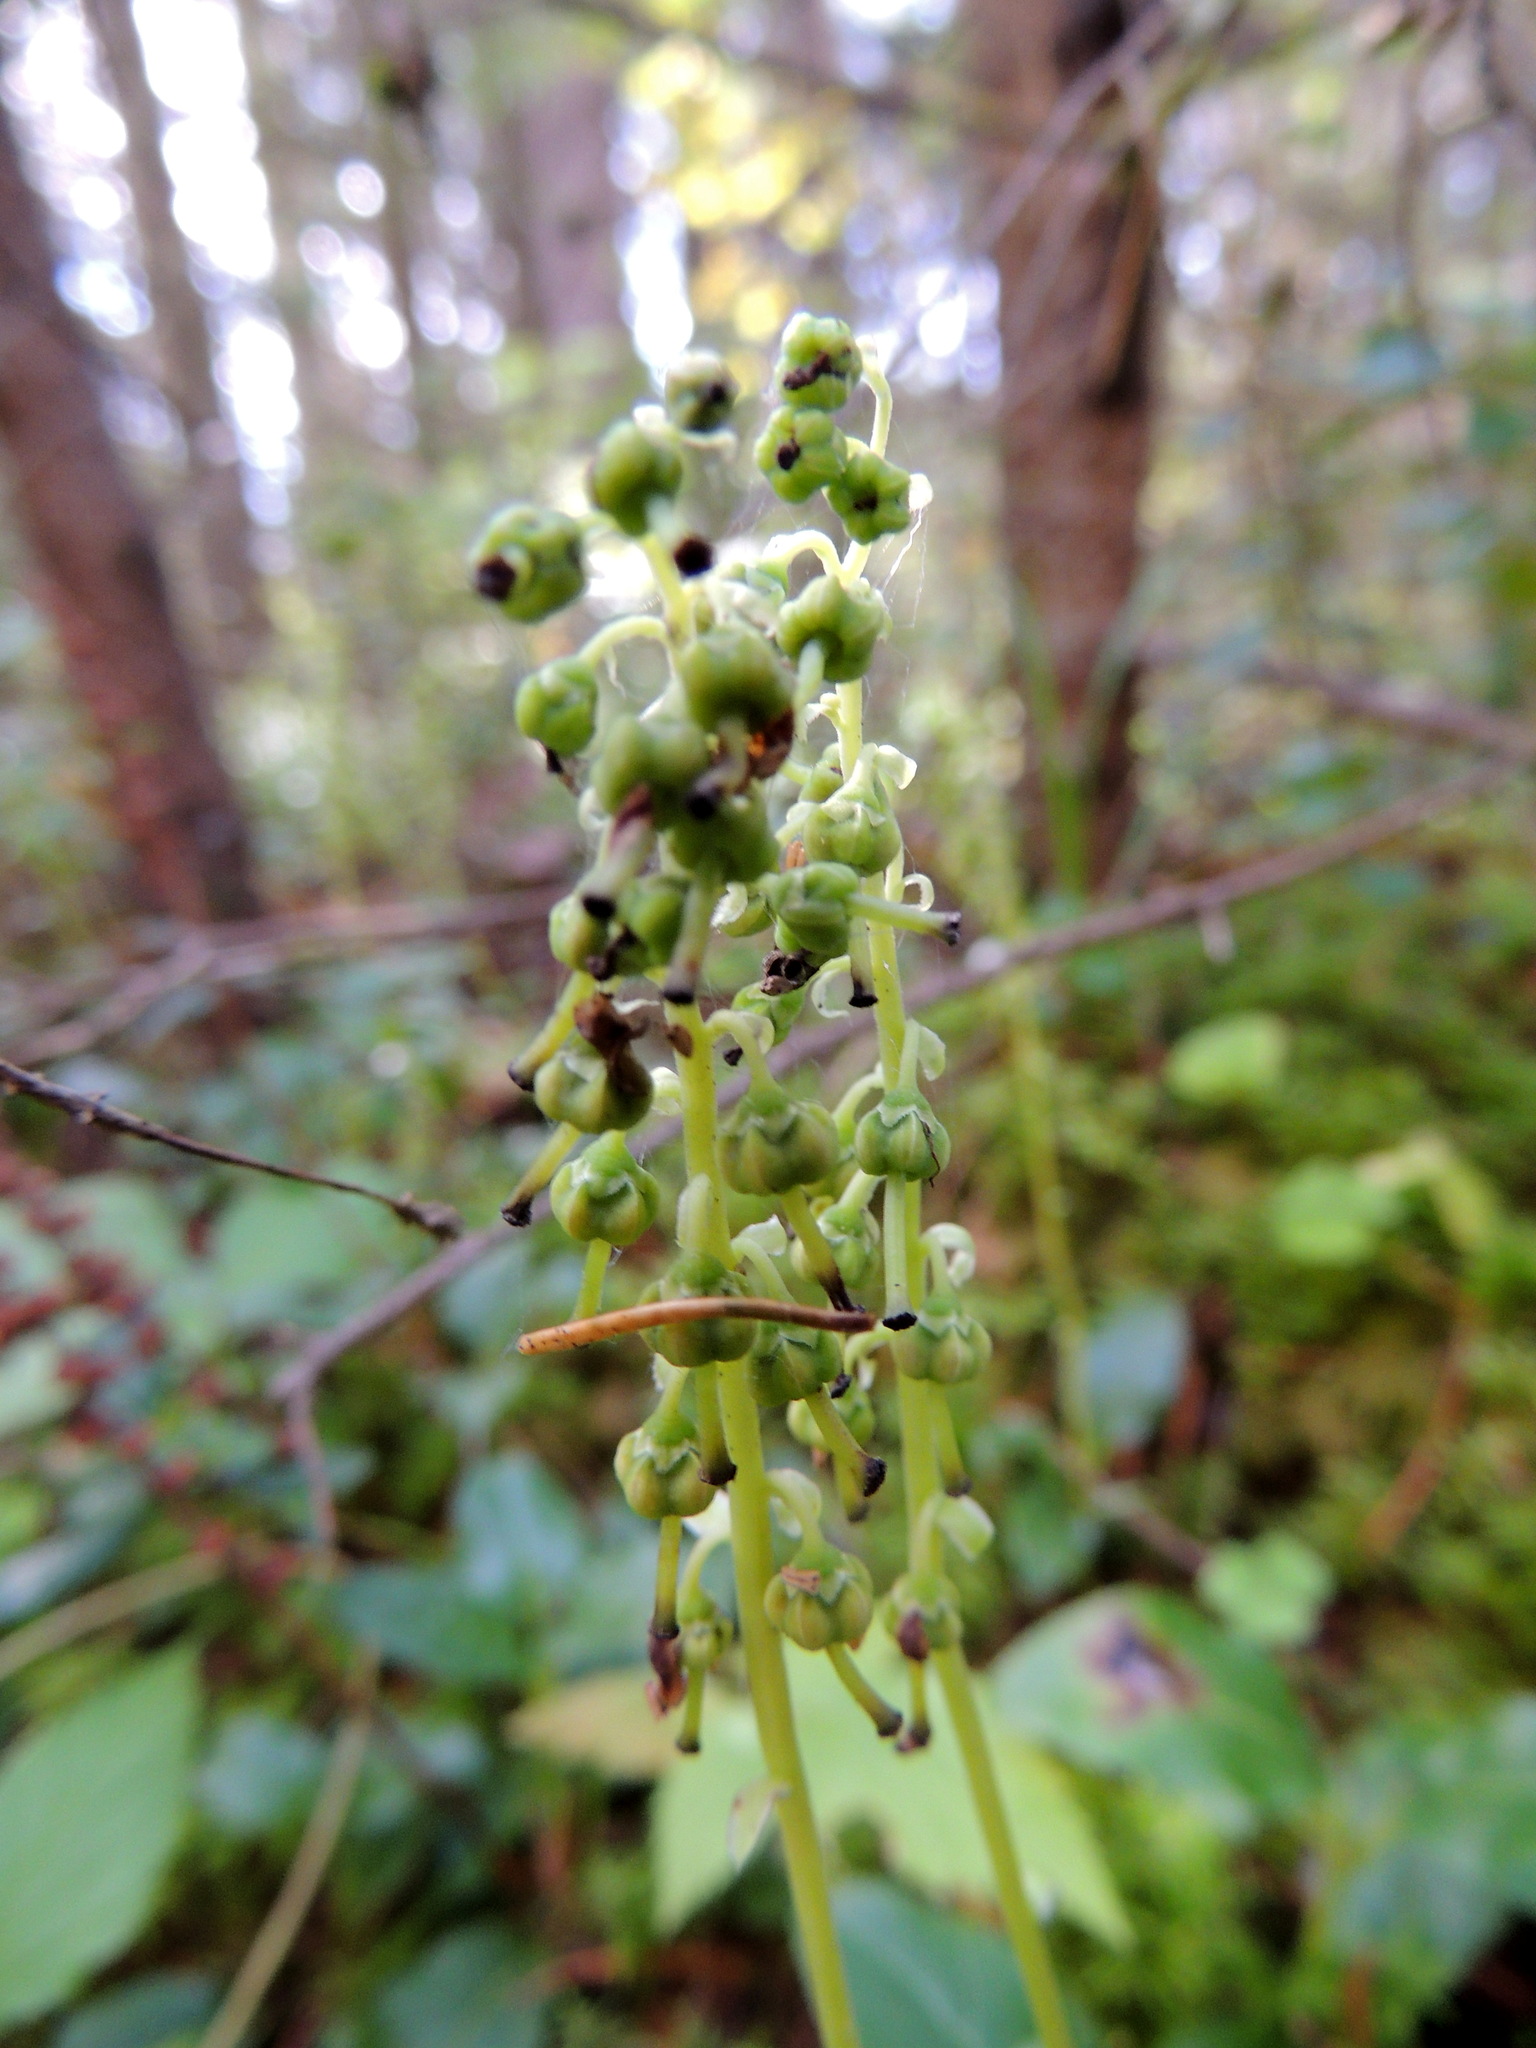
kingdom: Plantae
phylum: Tracheophyta
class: Magnoliopsida
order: Ericales
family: Ericaceae
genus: Orthilia
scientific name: Orthilia secunda
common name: One-sided orthilia
